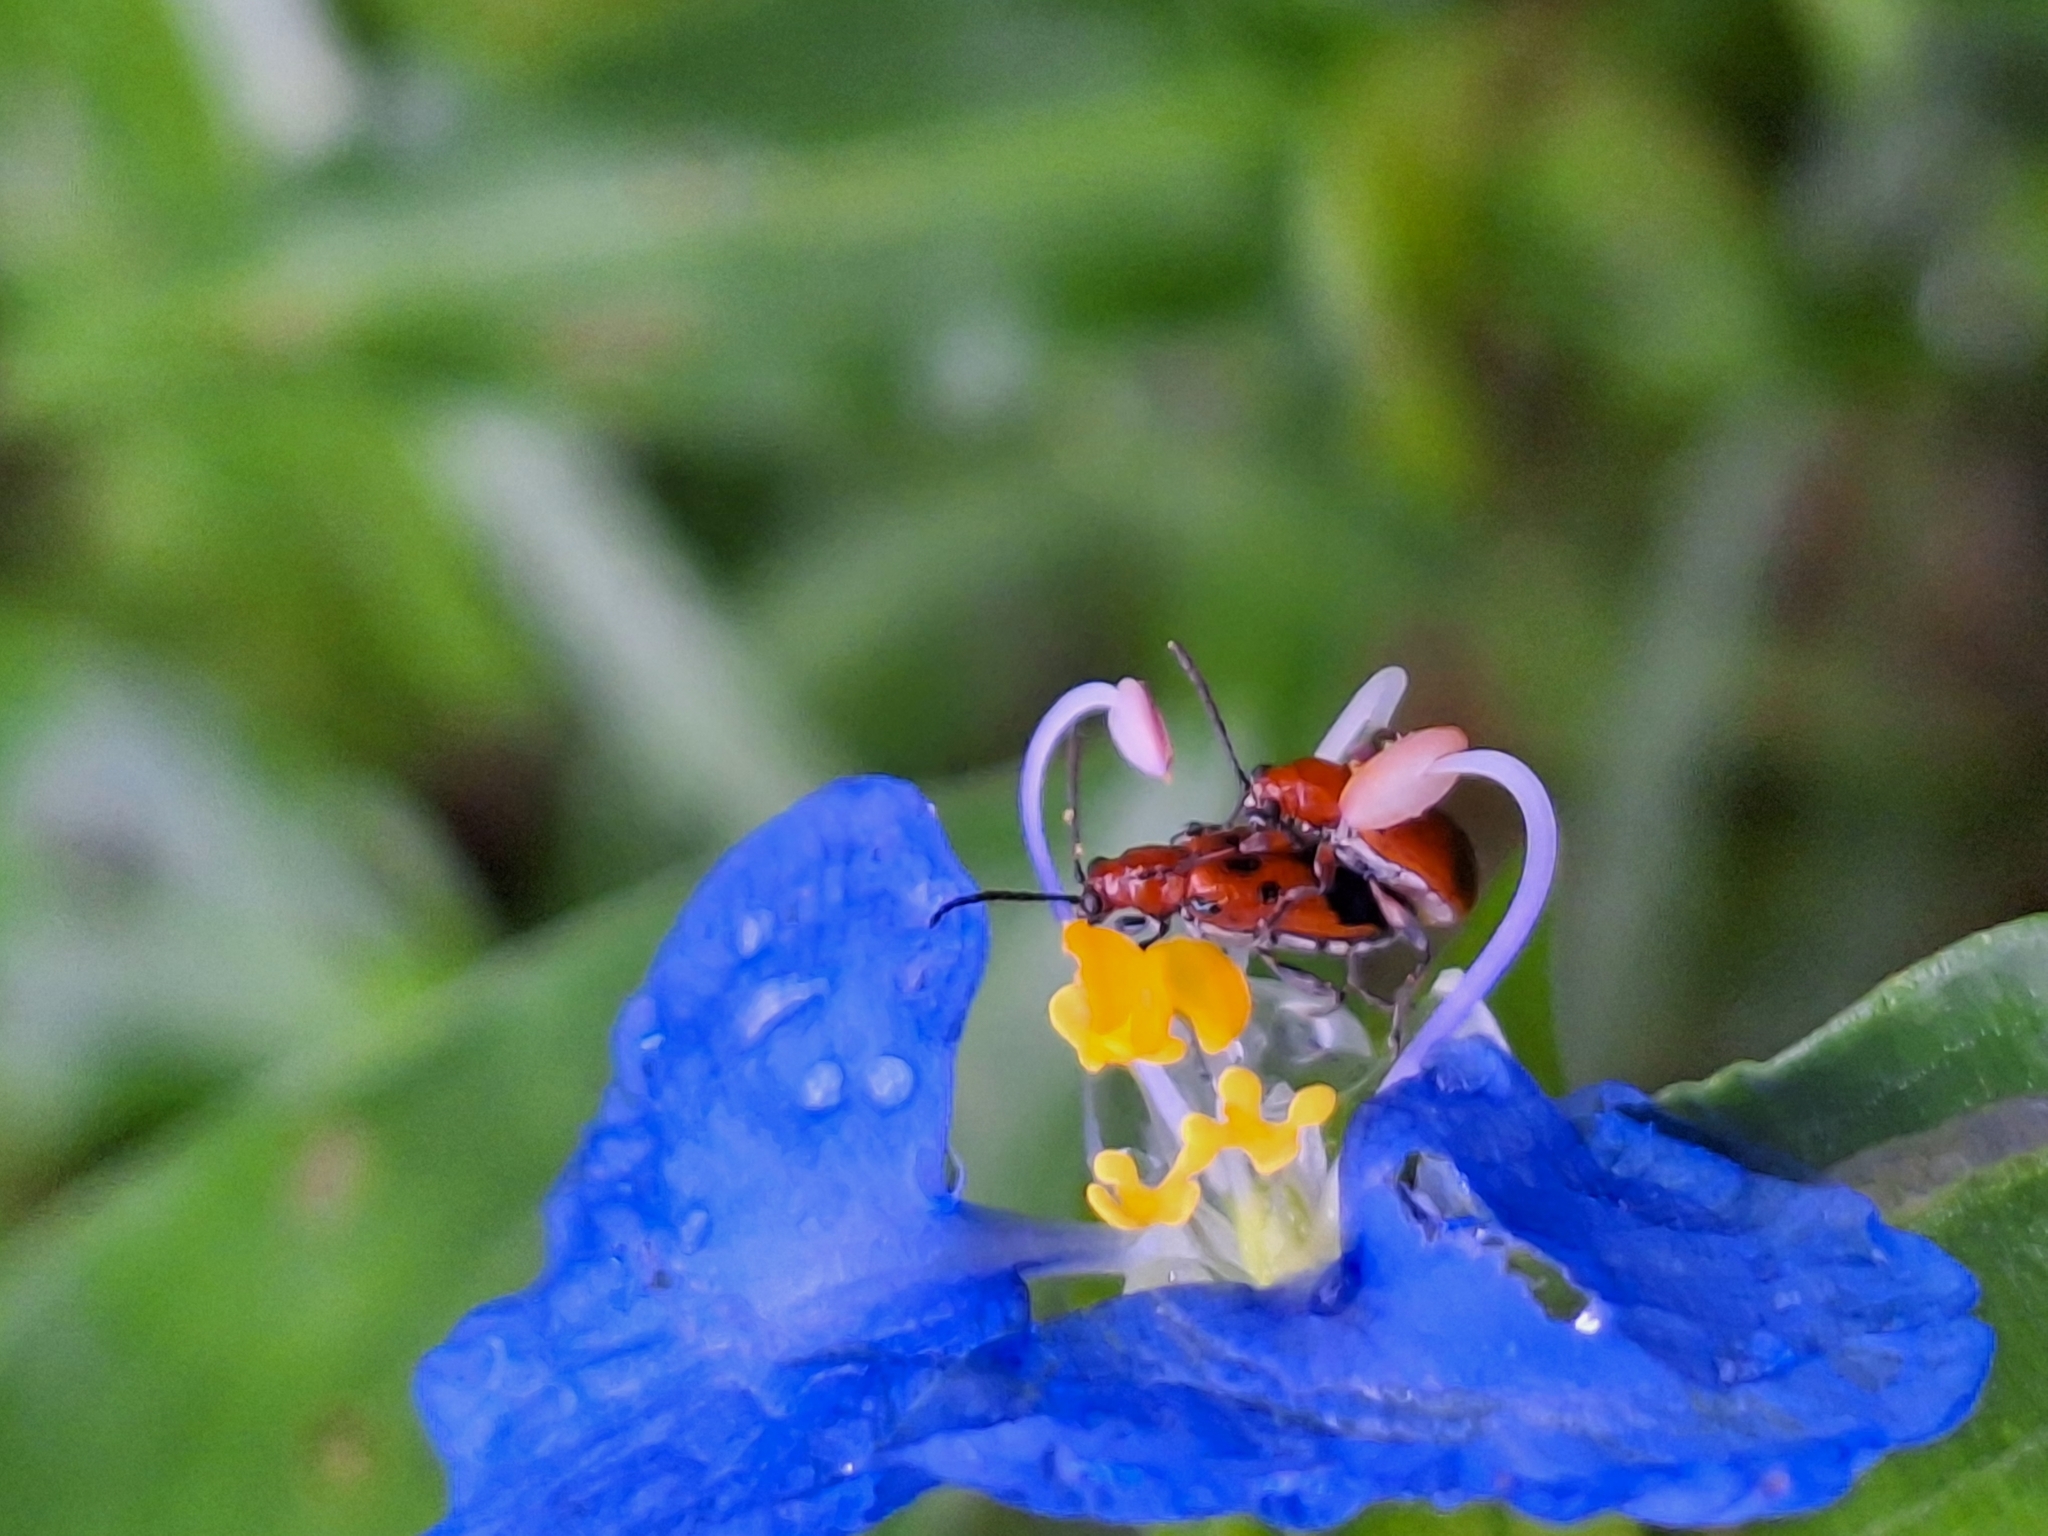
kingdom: Animalia
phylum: Arthropoda
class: Insecta
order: Coleoptera
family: Chrysomelidae
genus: Neolema
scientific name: Neolema dorsalis
